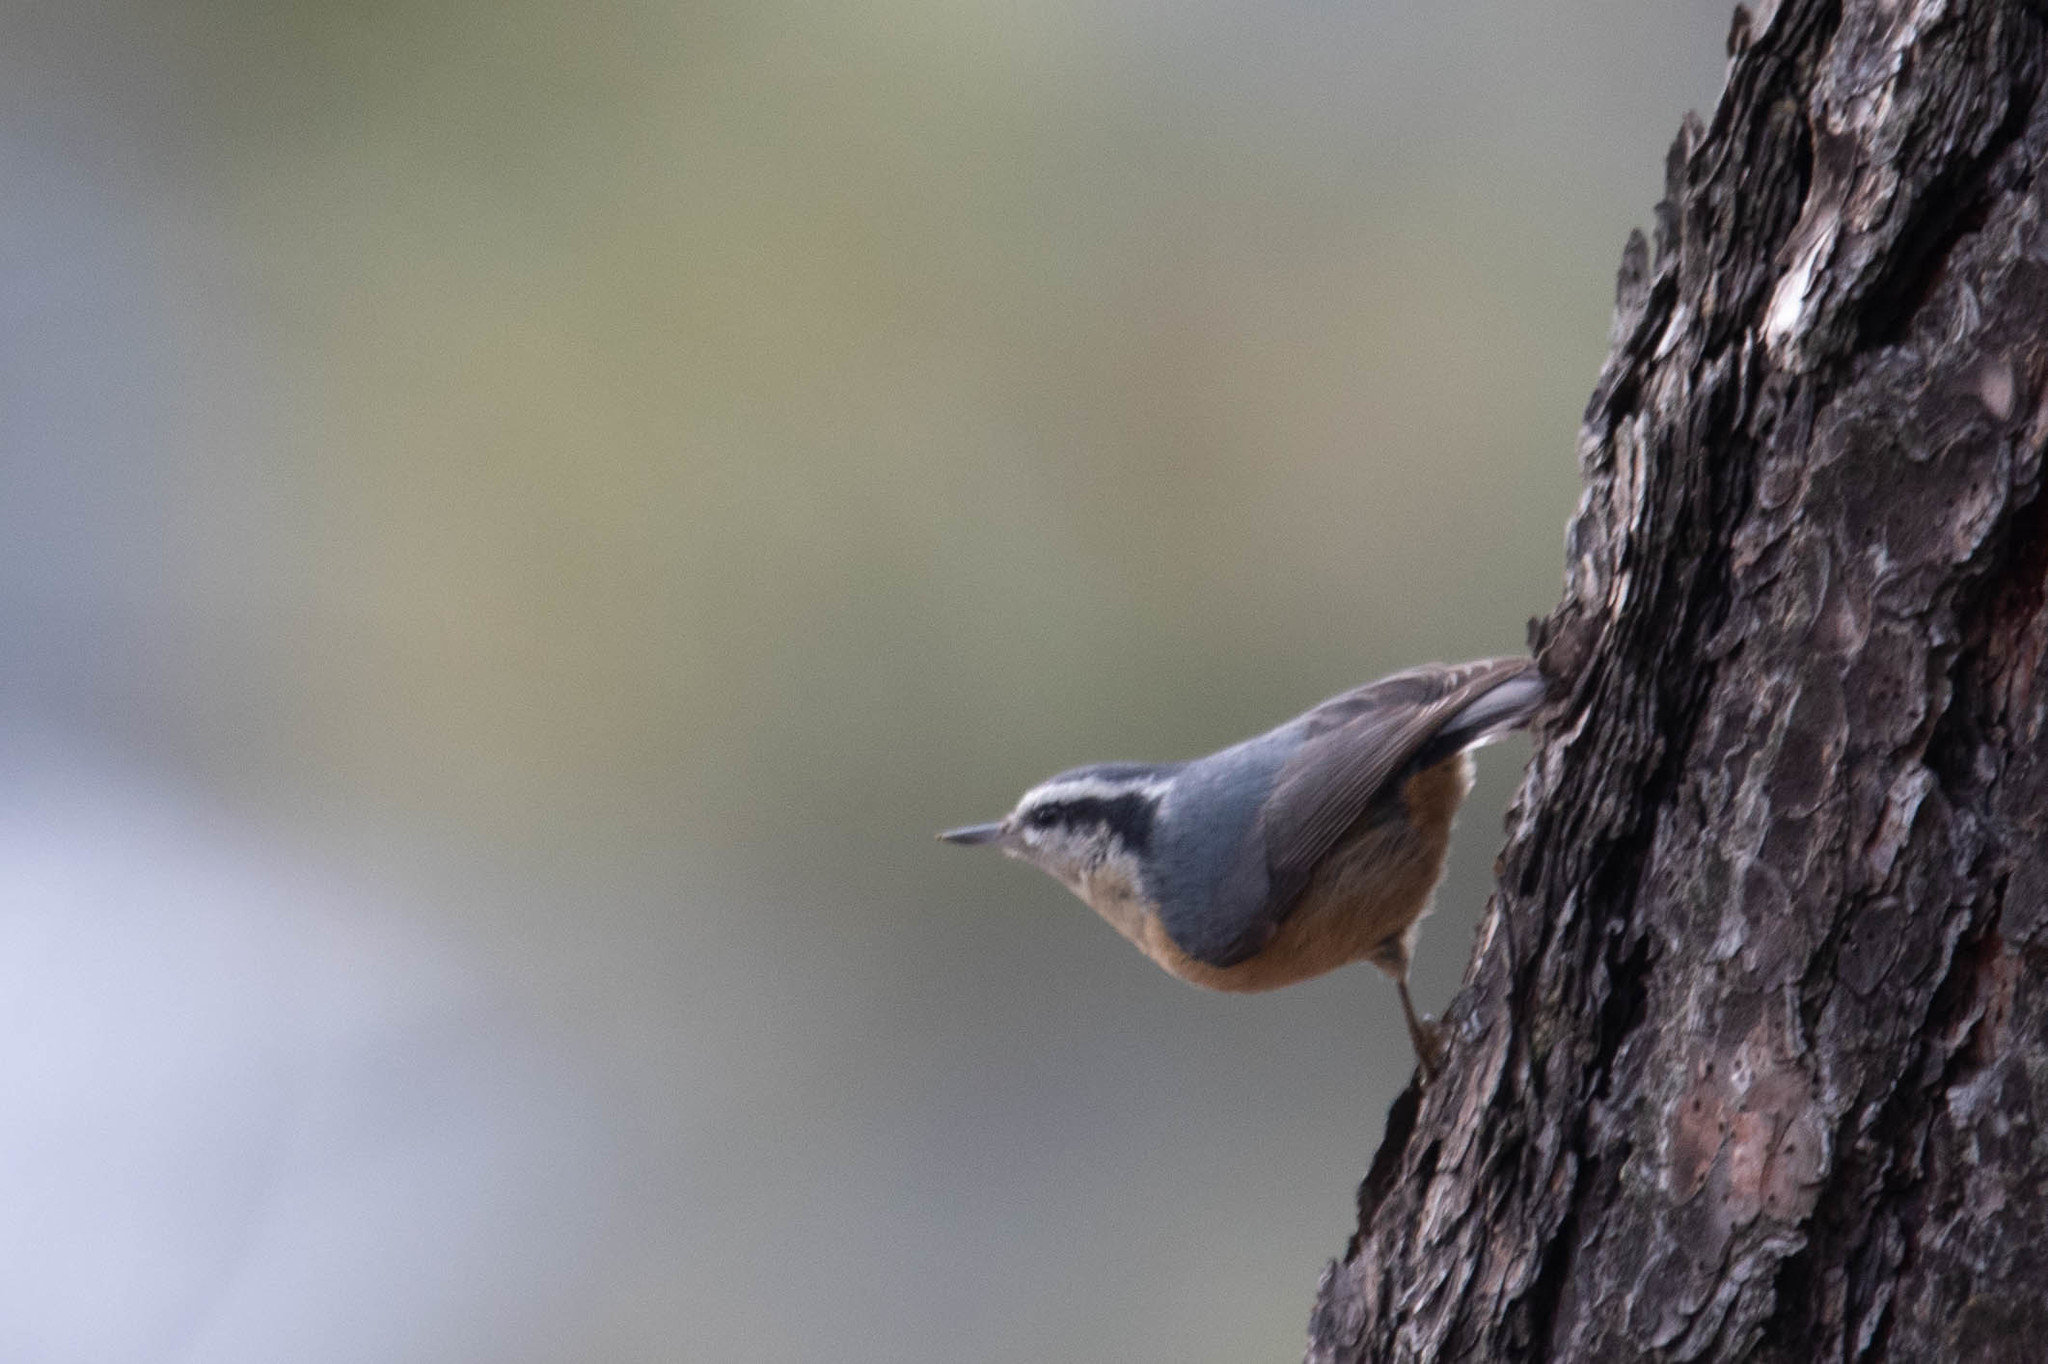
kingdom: Animalia
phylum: Chordata
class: Aves
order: Passeriformes
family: Sittidae
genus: Sitta
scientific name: Sitta canadensis
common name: Red-breasted nuthatch
